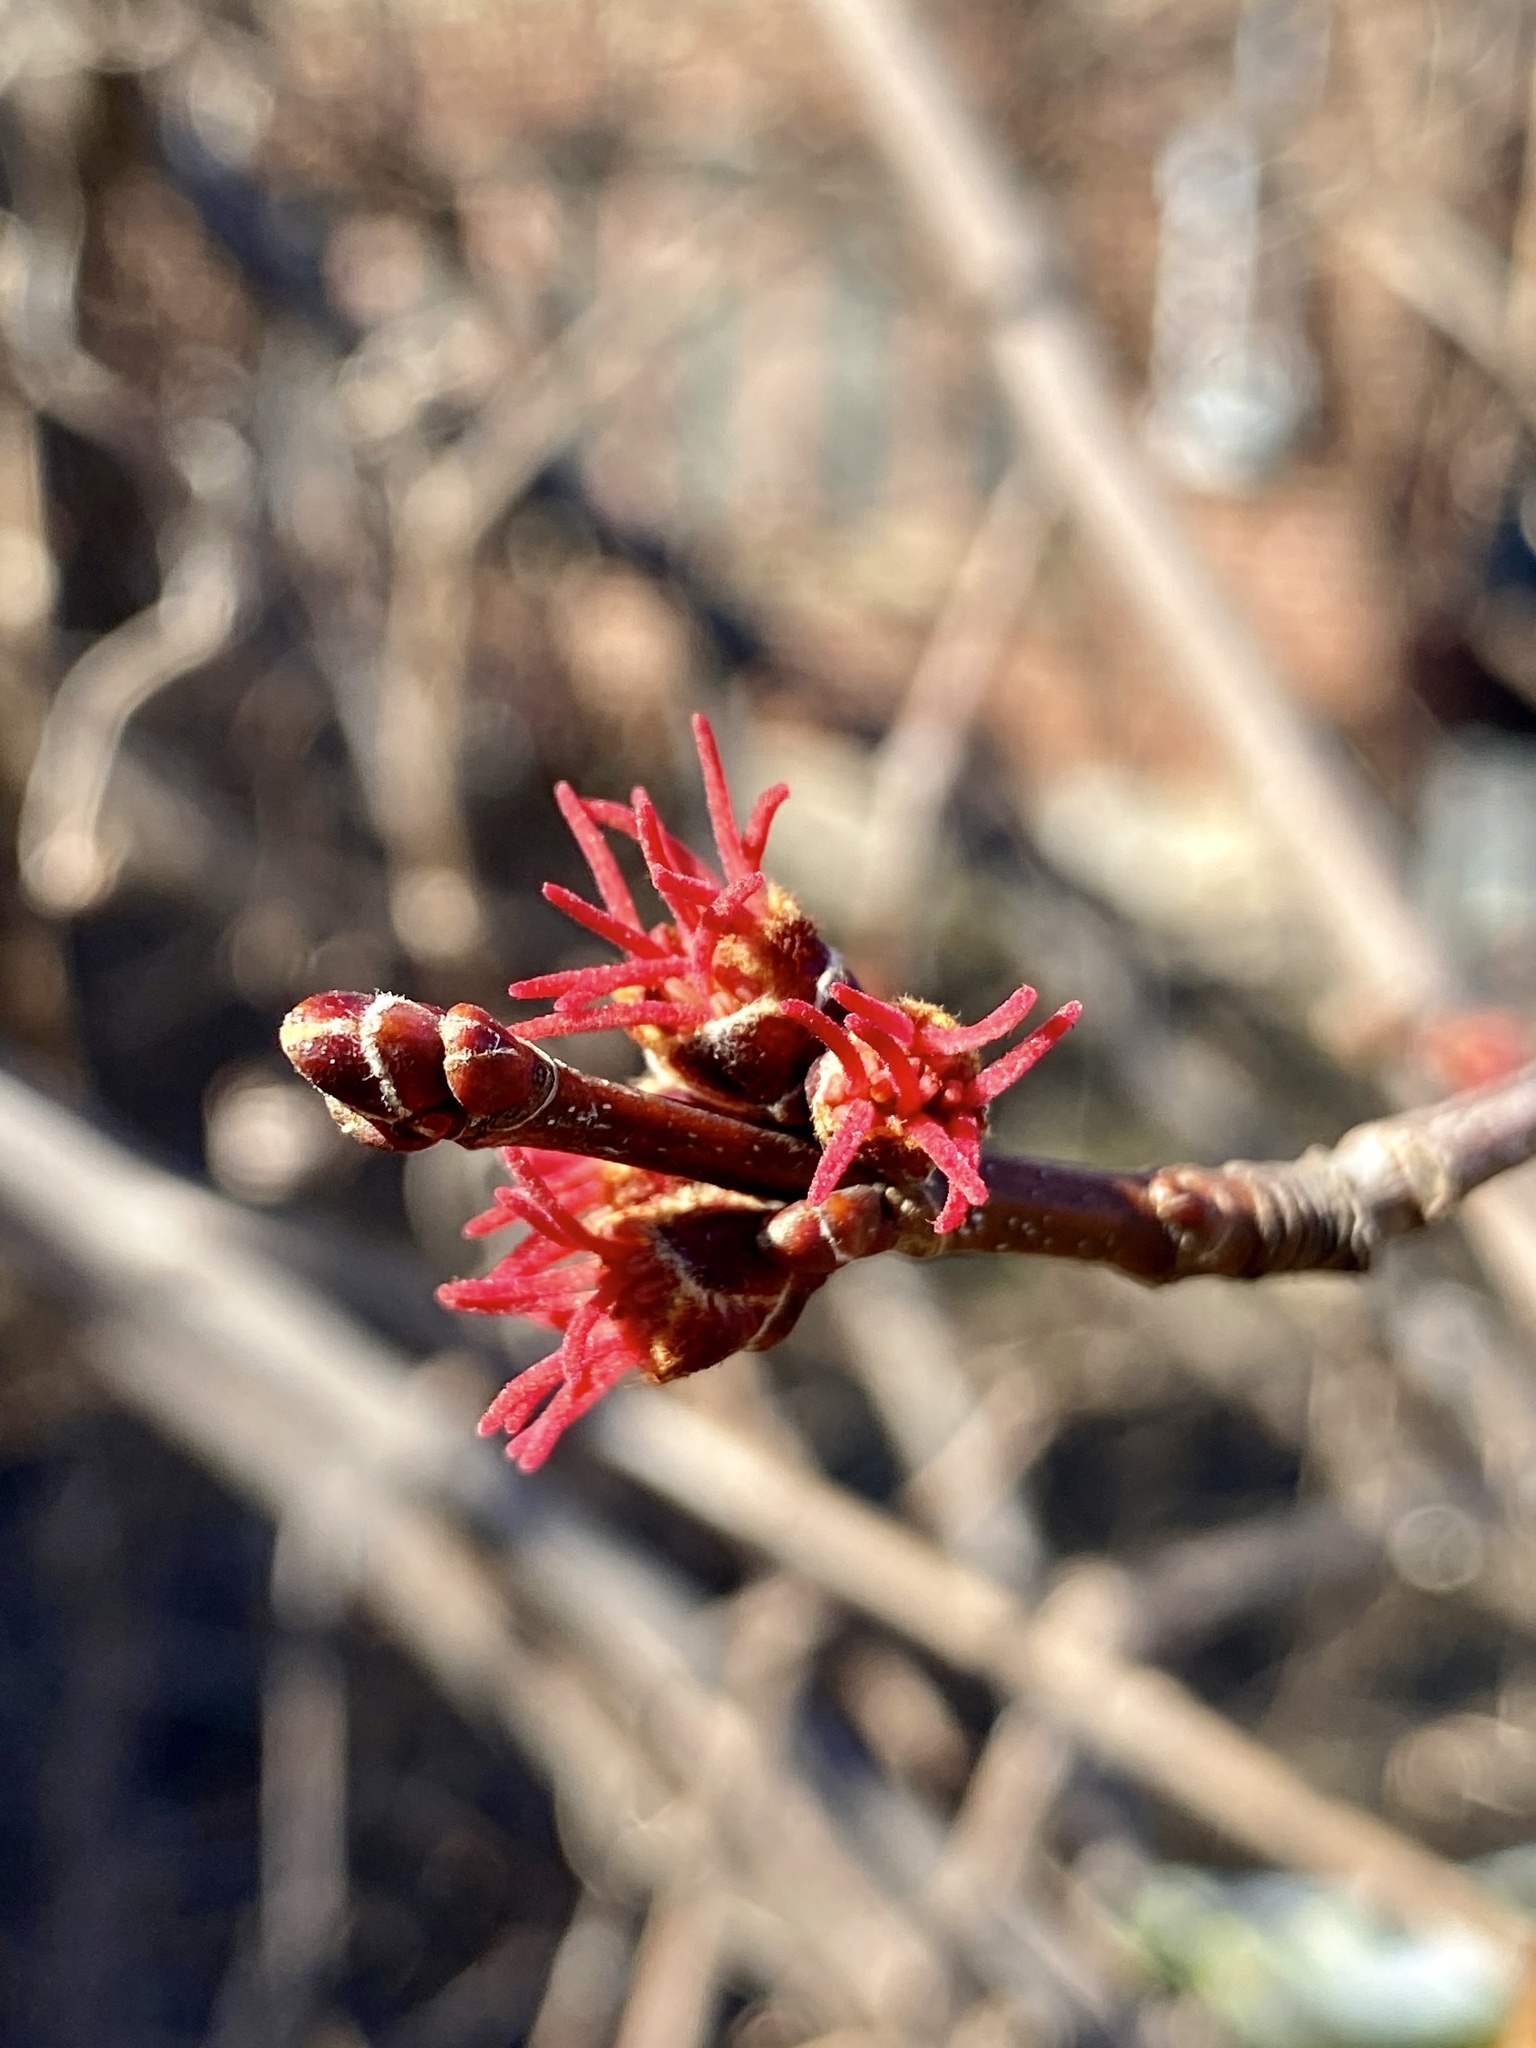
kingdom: Plantae
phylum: Tracheophyta
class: Magnoliopsida
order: Sapindales
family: Sapindaceae
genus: Acer
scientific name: Acer saccharinum
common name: Silver maple
